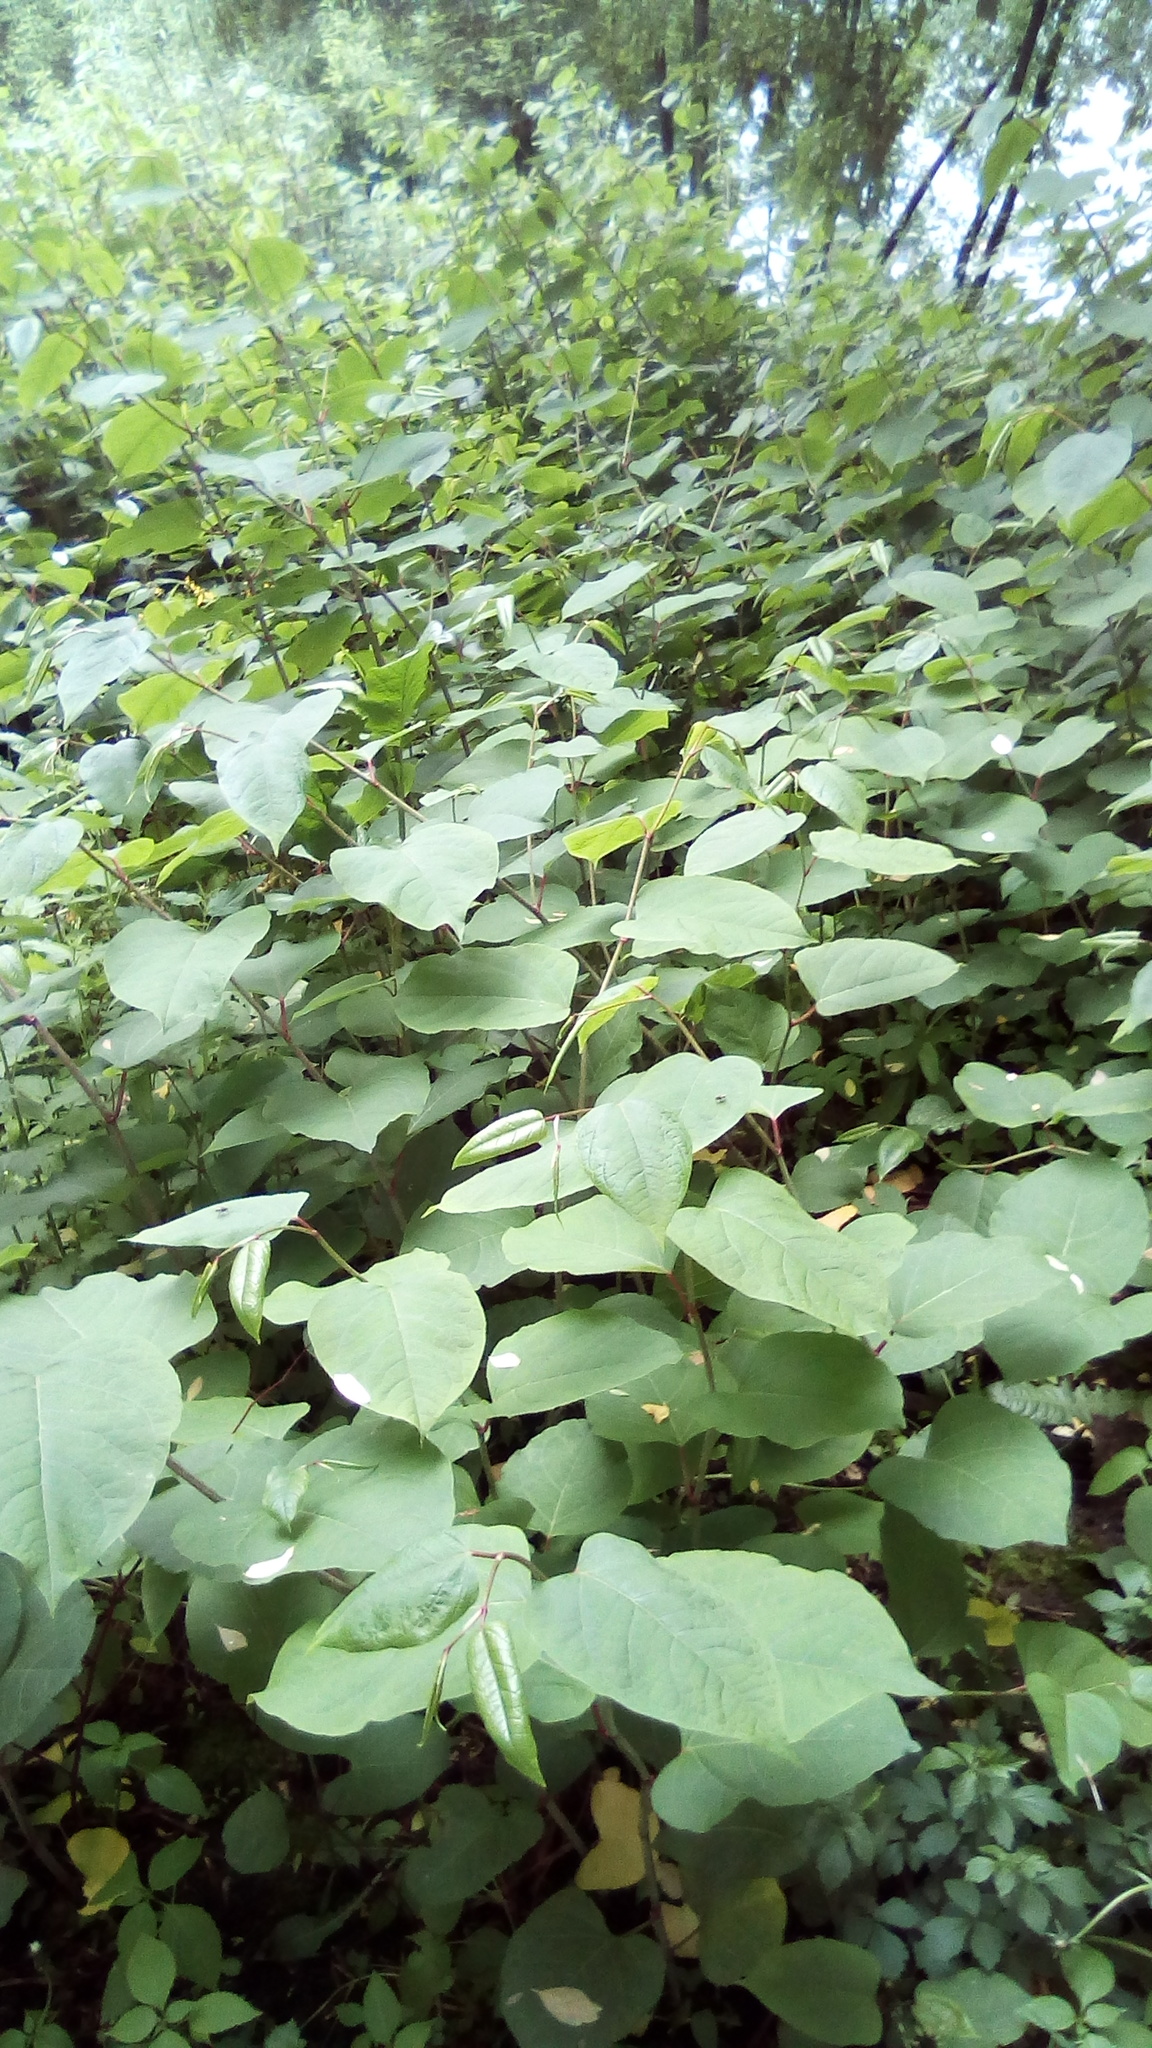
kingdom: Plantae
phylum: Tracheophyta
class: Magnoliopsida
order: Caryophyllales
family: Polygonaceae
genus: Reynoutria
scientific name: Reynoutria bohemica
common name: Bohemian knotweed
